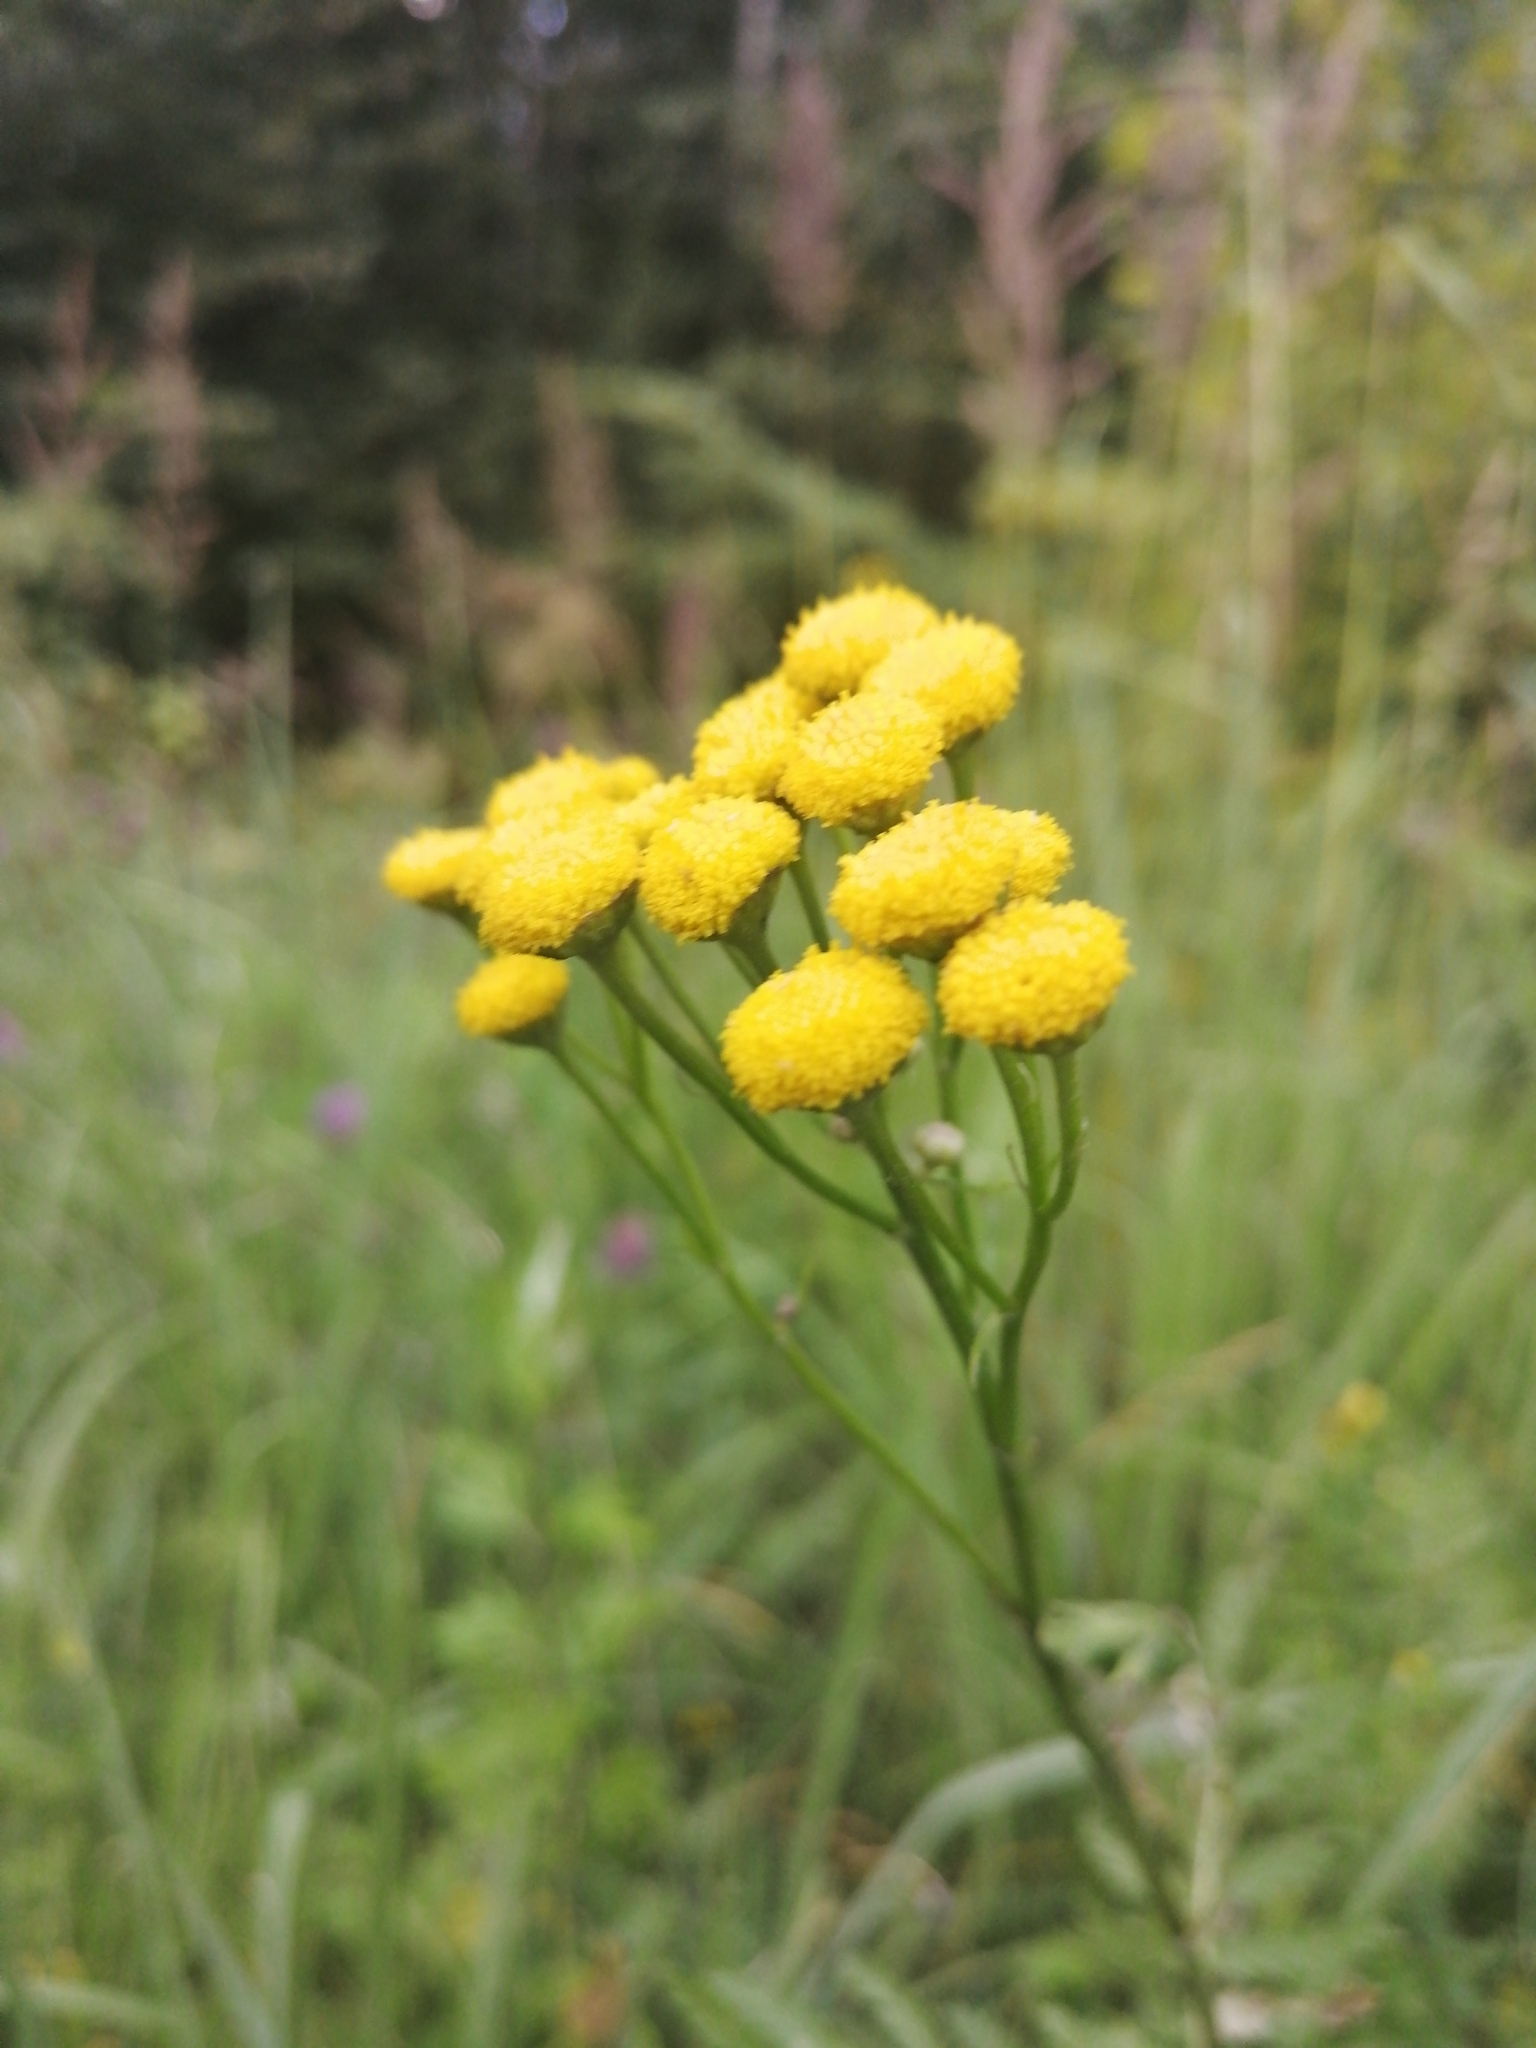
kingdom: Plantae
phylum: Tracheophyta
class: Magnoliopsida
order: Asterales
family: Asteraceae
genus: Tanacetum
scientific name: Tanacetum vulgare
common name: Common tansy
